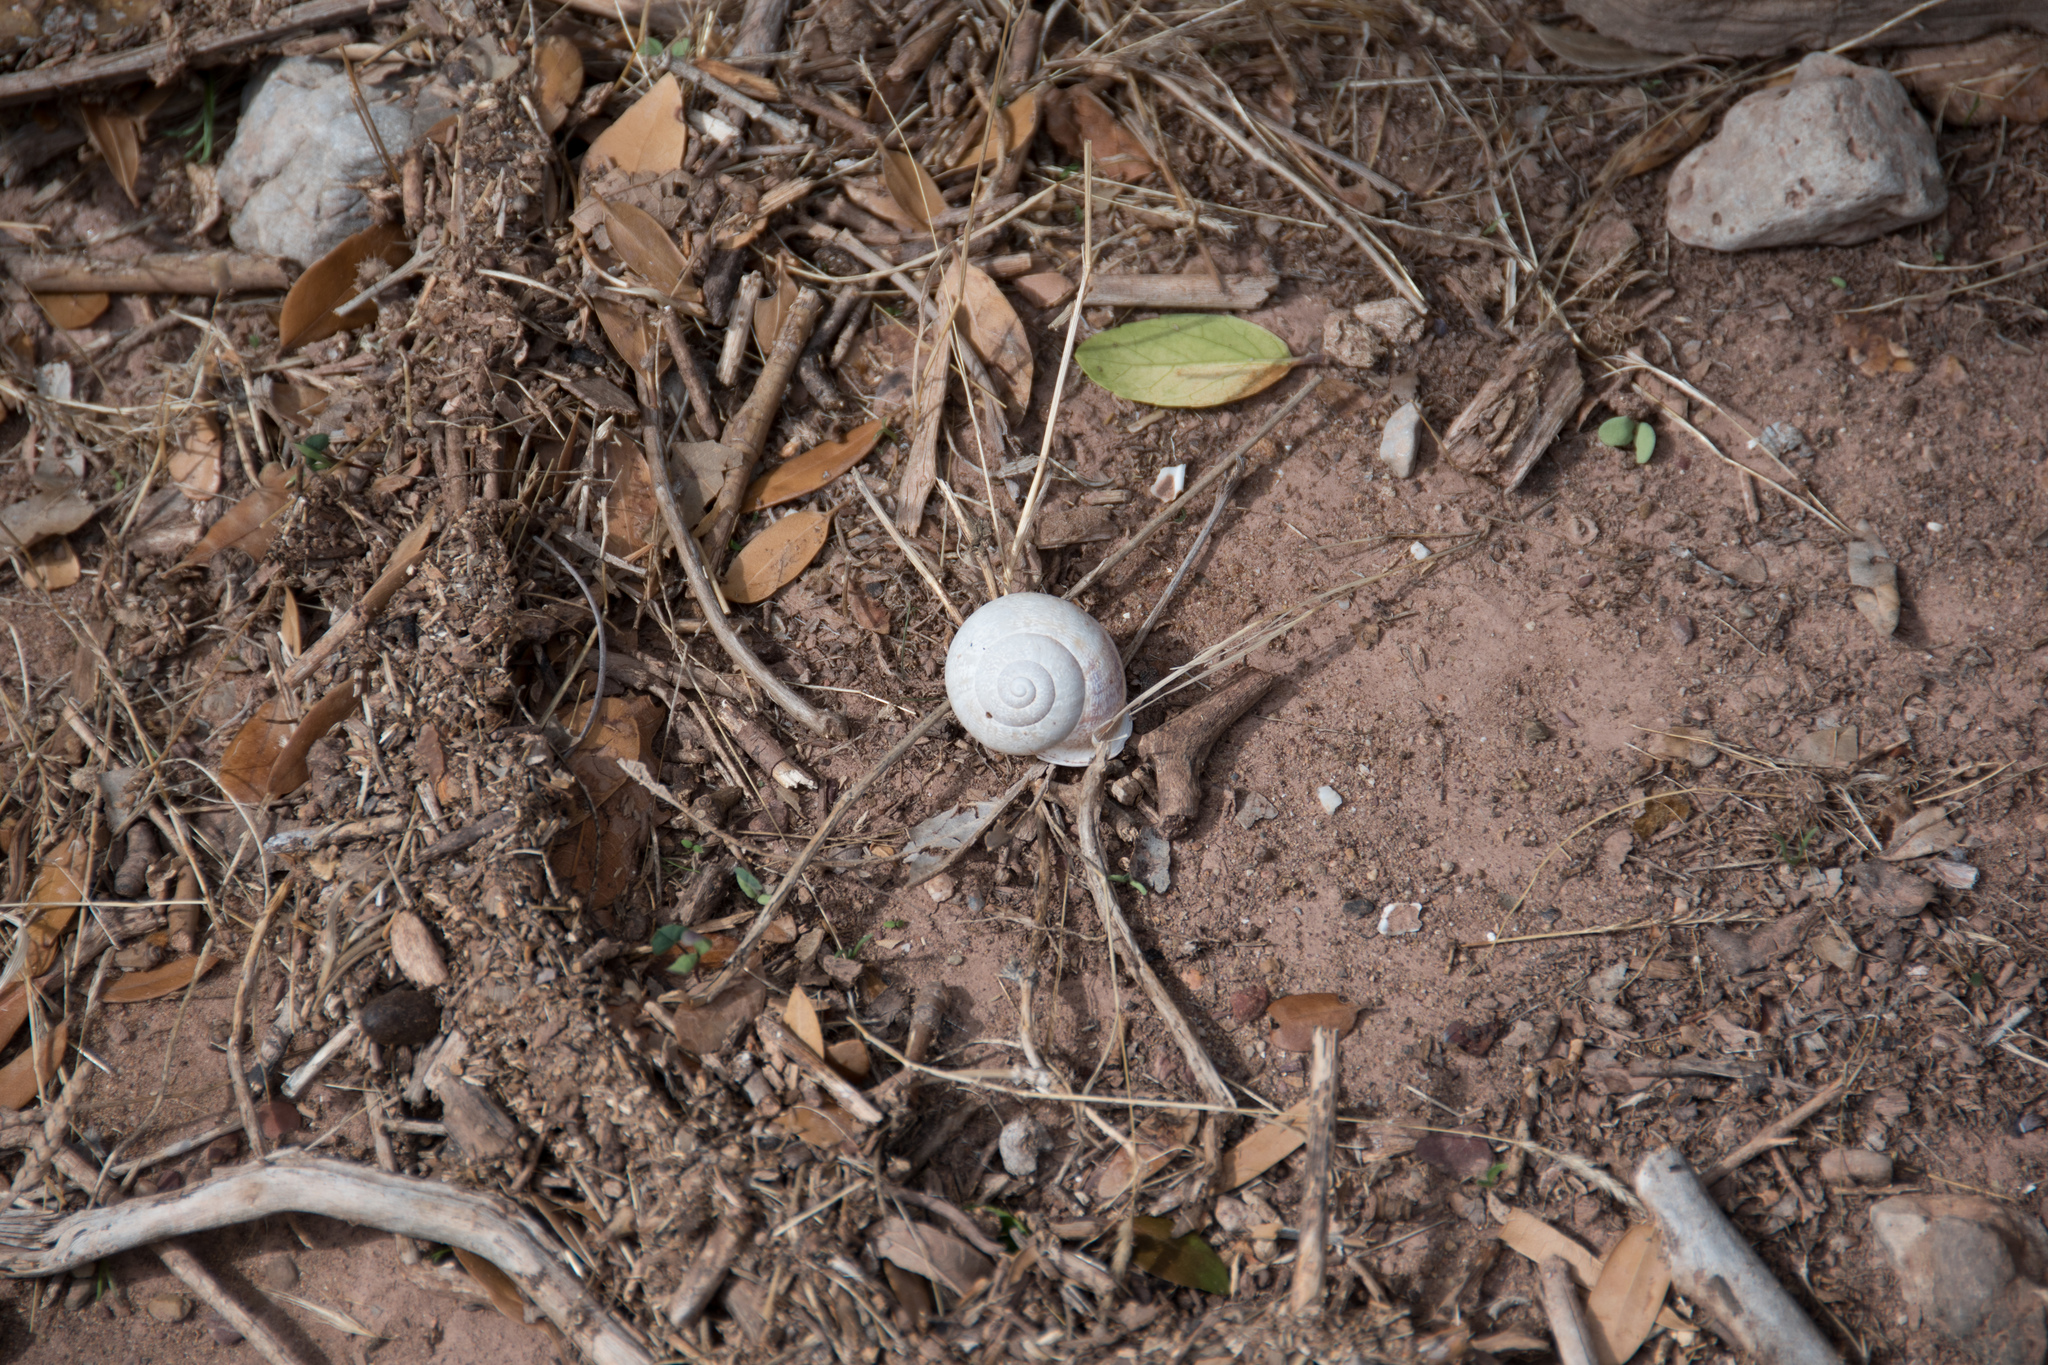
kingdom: Animalia
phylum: Mollusca
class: Gastropoda
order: Stylommatophora
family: Helicidae
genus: Eobania
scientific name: Eobania vermiculata
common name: Chocolateband snail
